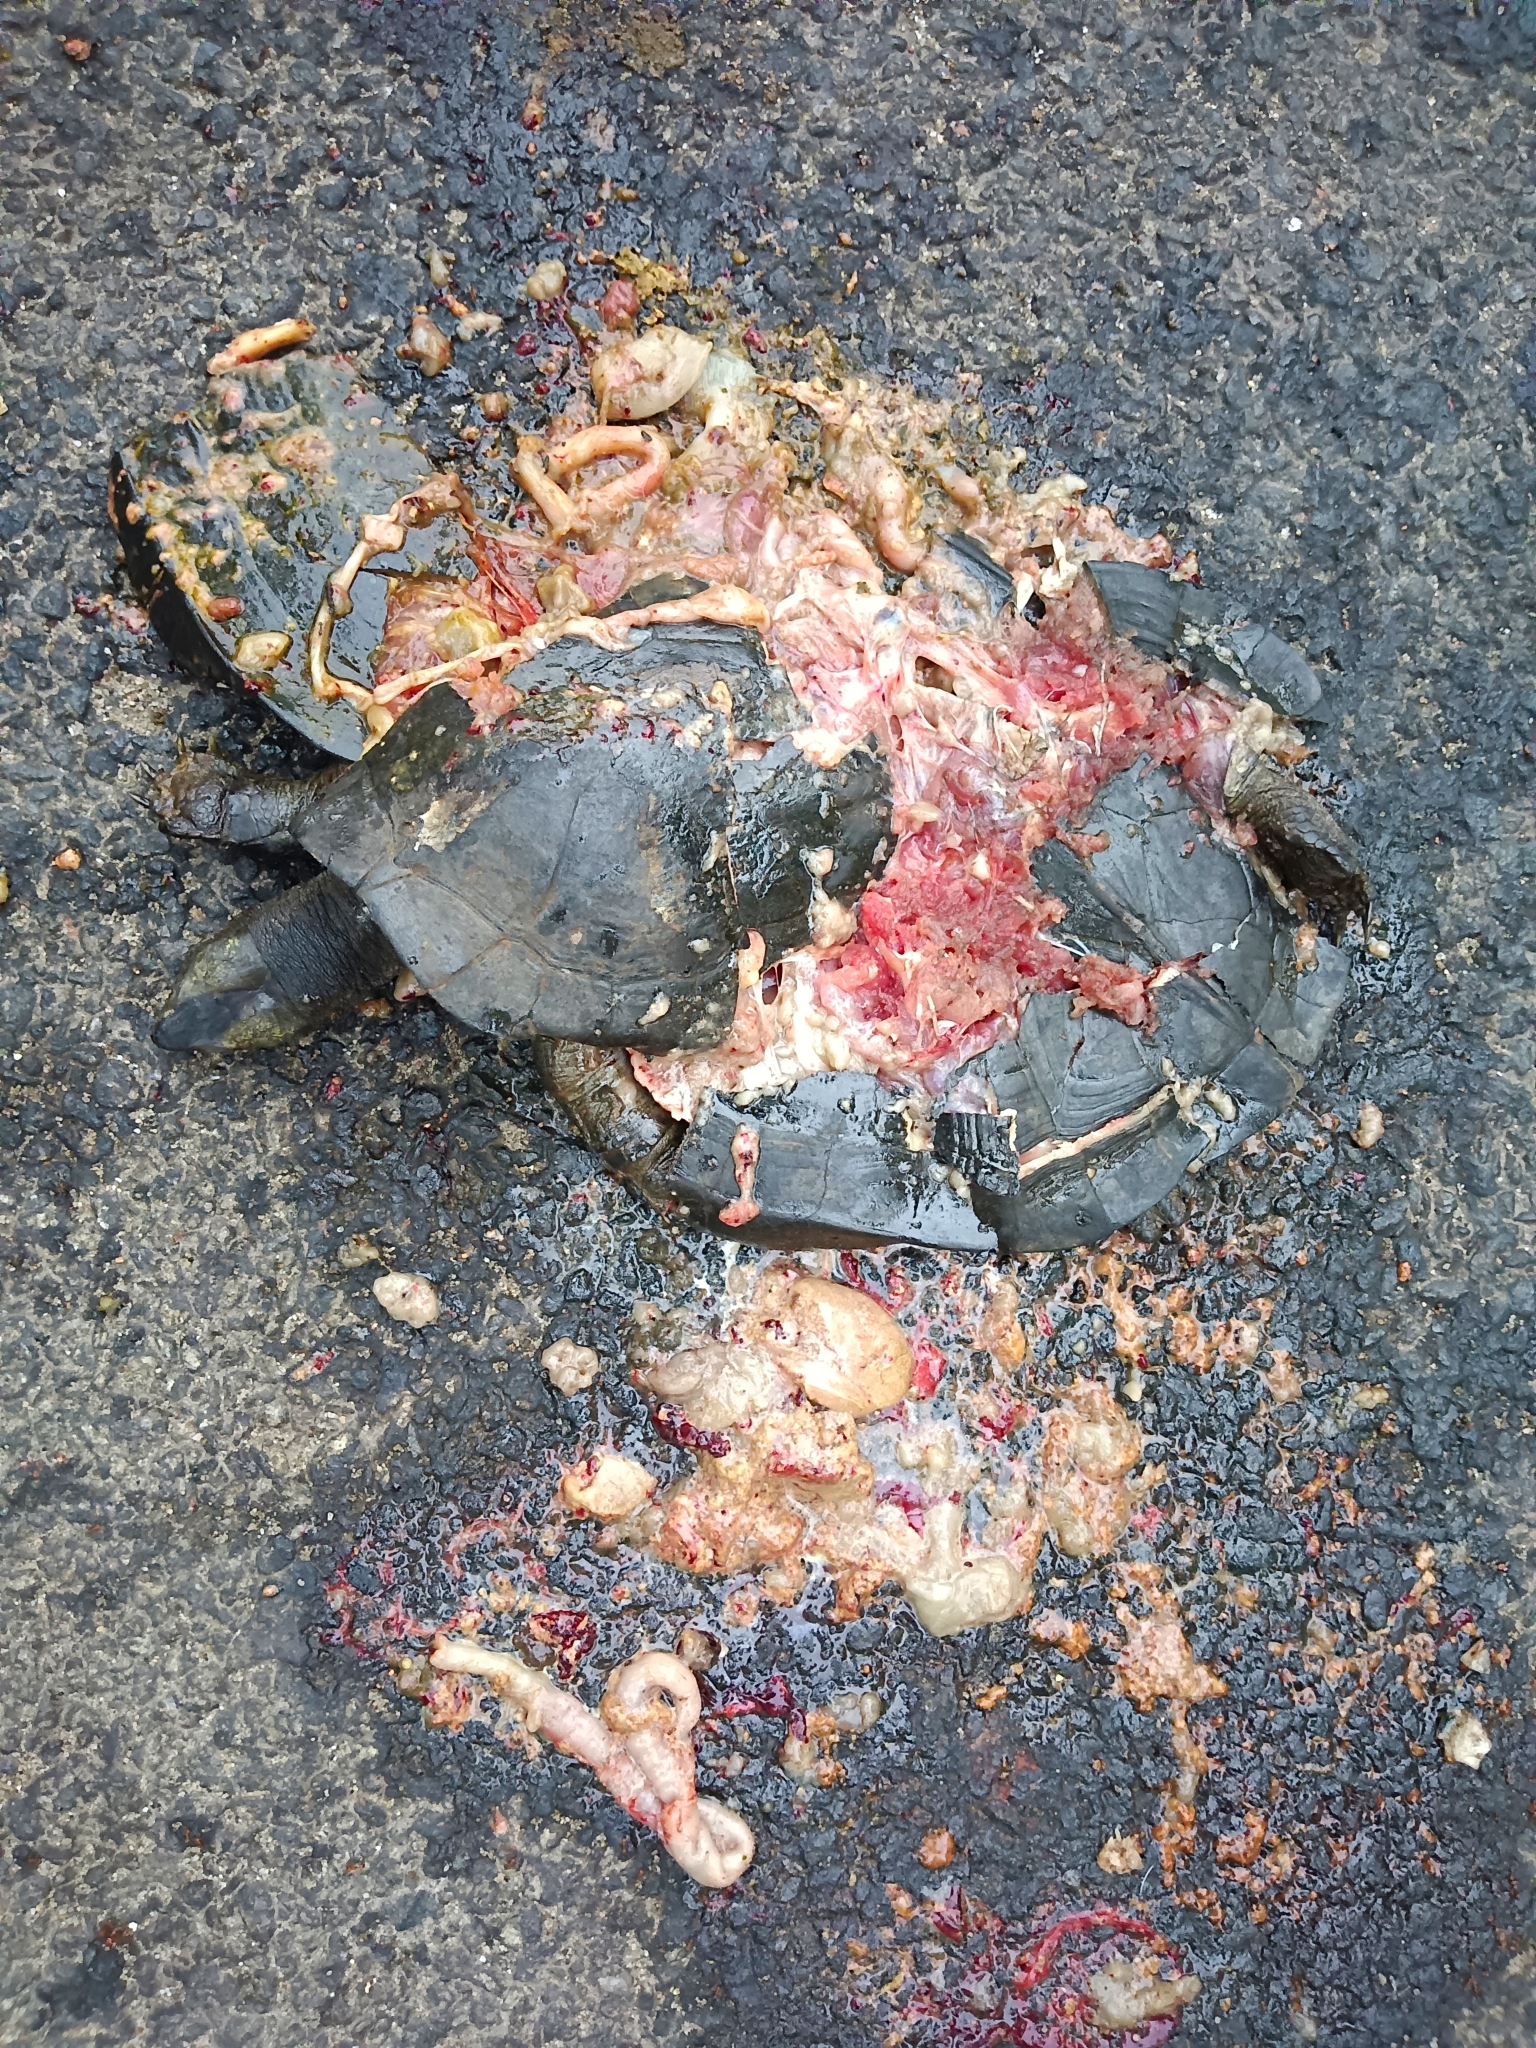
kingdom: Animalia
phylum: Chordata
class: Testudines
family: Geoemydidae
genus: Melanochelys
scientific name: Melanochelys trijuga
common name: Indian black turtle
